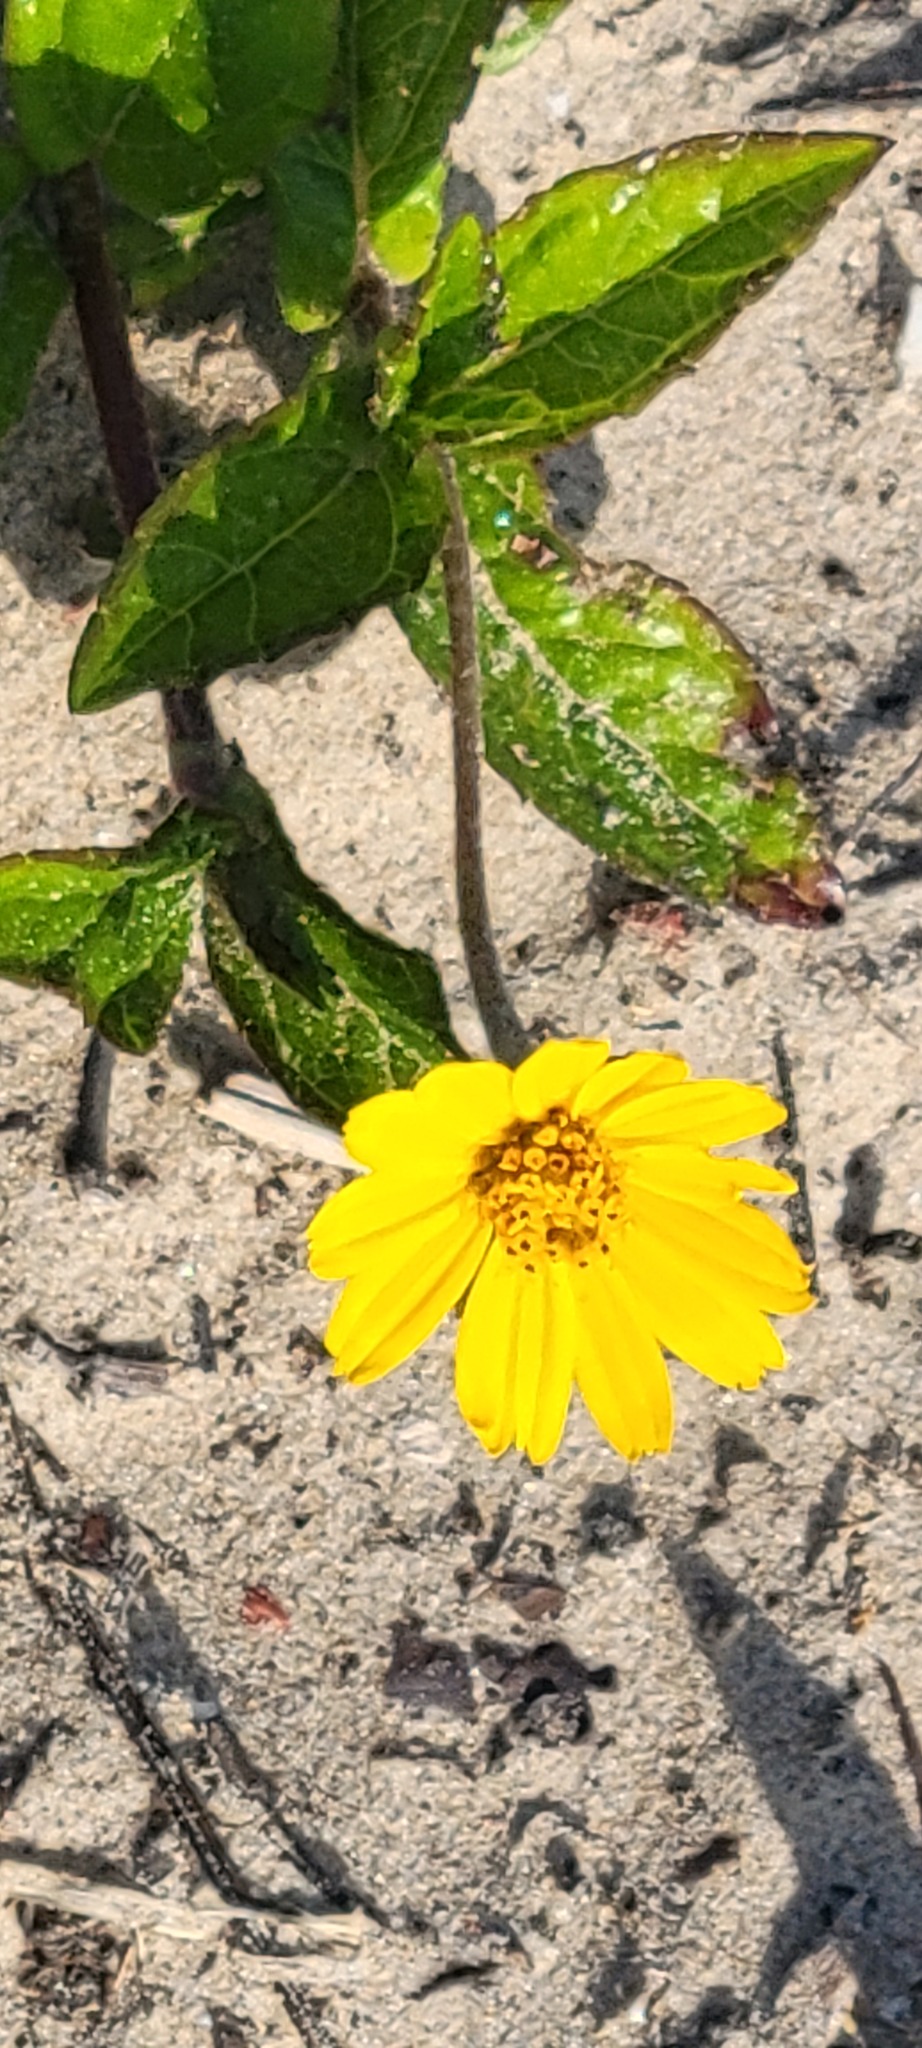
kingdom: Plantae
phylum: Tracheophyta
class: Magnoliopsida
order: Asterales
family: Asteraceae
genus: Sphagneticola
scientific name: Sphagneticola trilobata
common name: Bay biscayne creeping-oxeye
